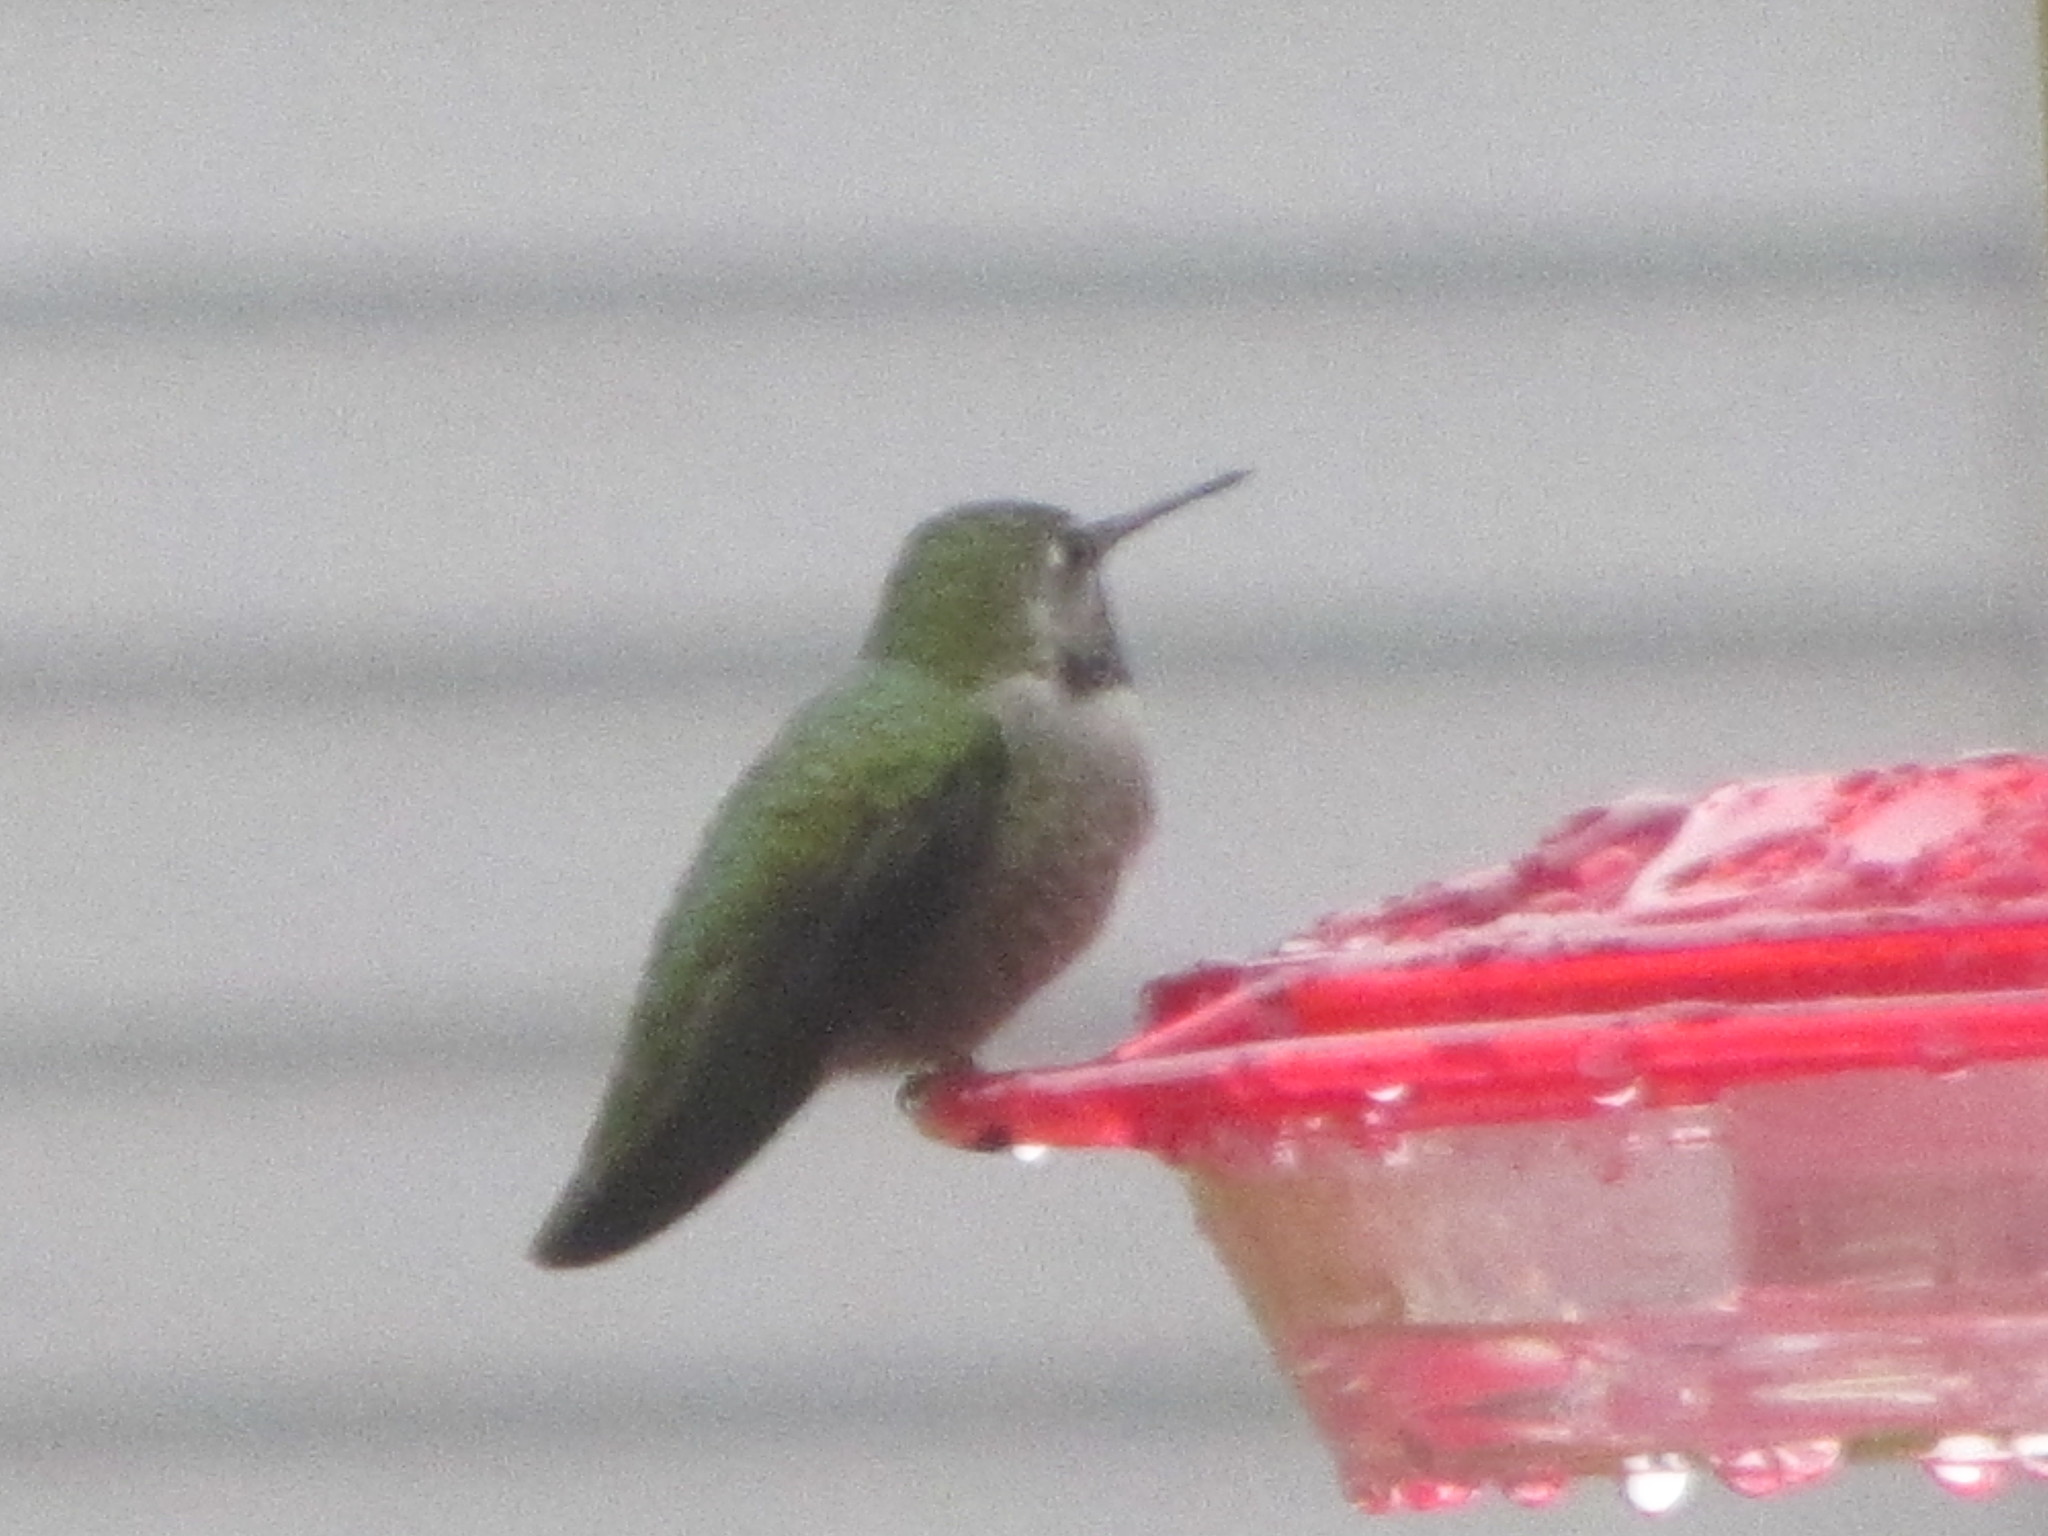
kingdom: Animalia
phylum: Chordata
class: Aves
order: Apodiformes
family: Trochilidae
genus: Calypte
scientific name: Calypte anna
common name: Anna's hummingbird
